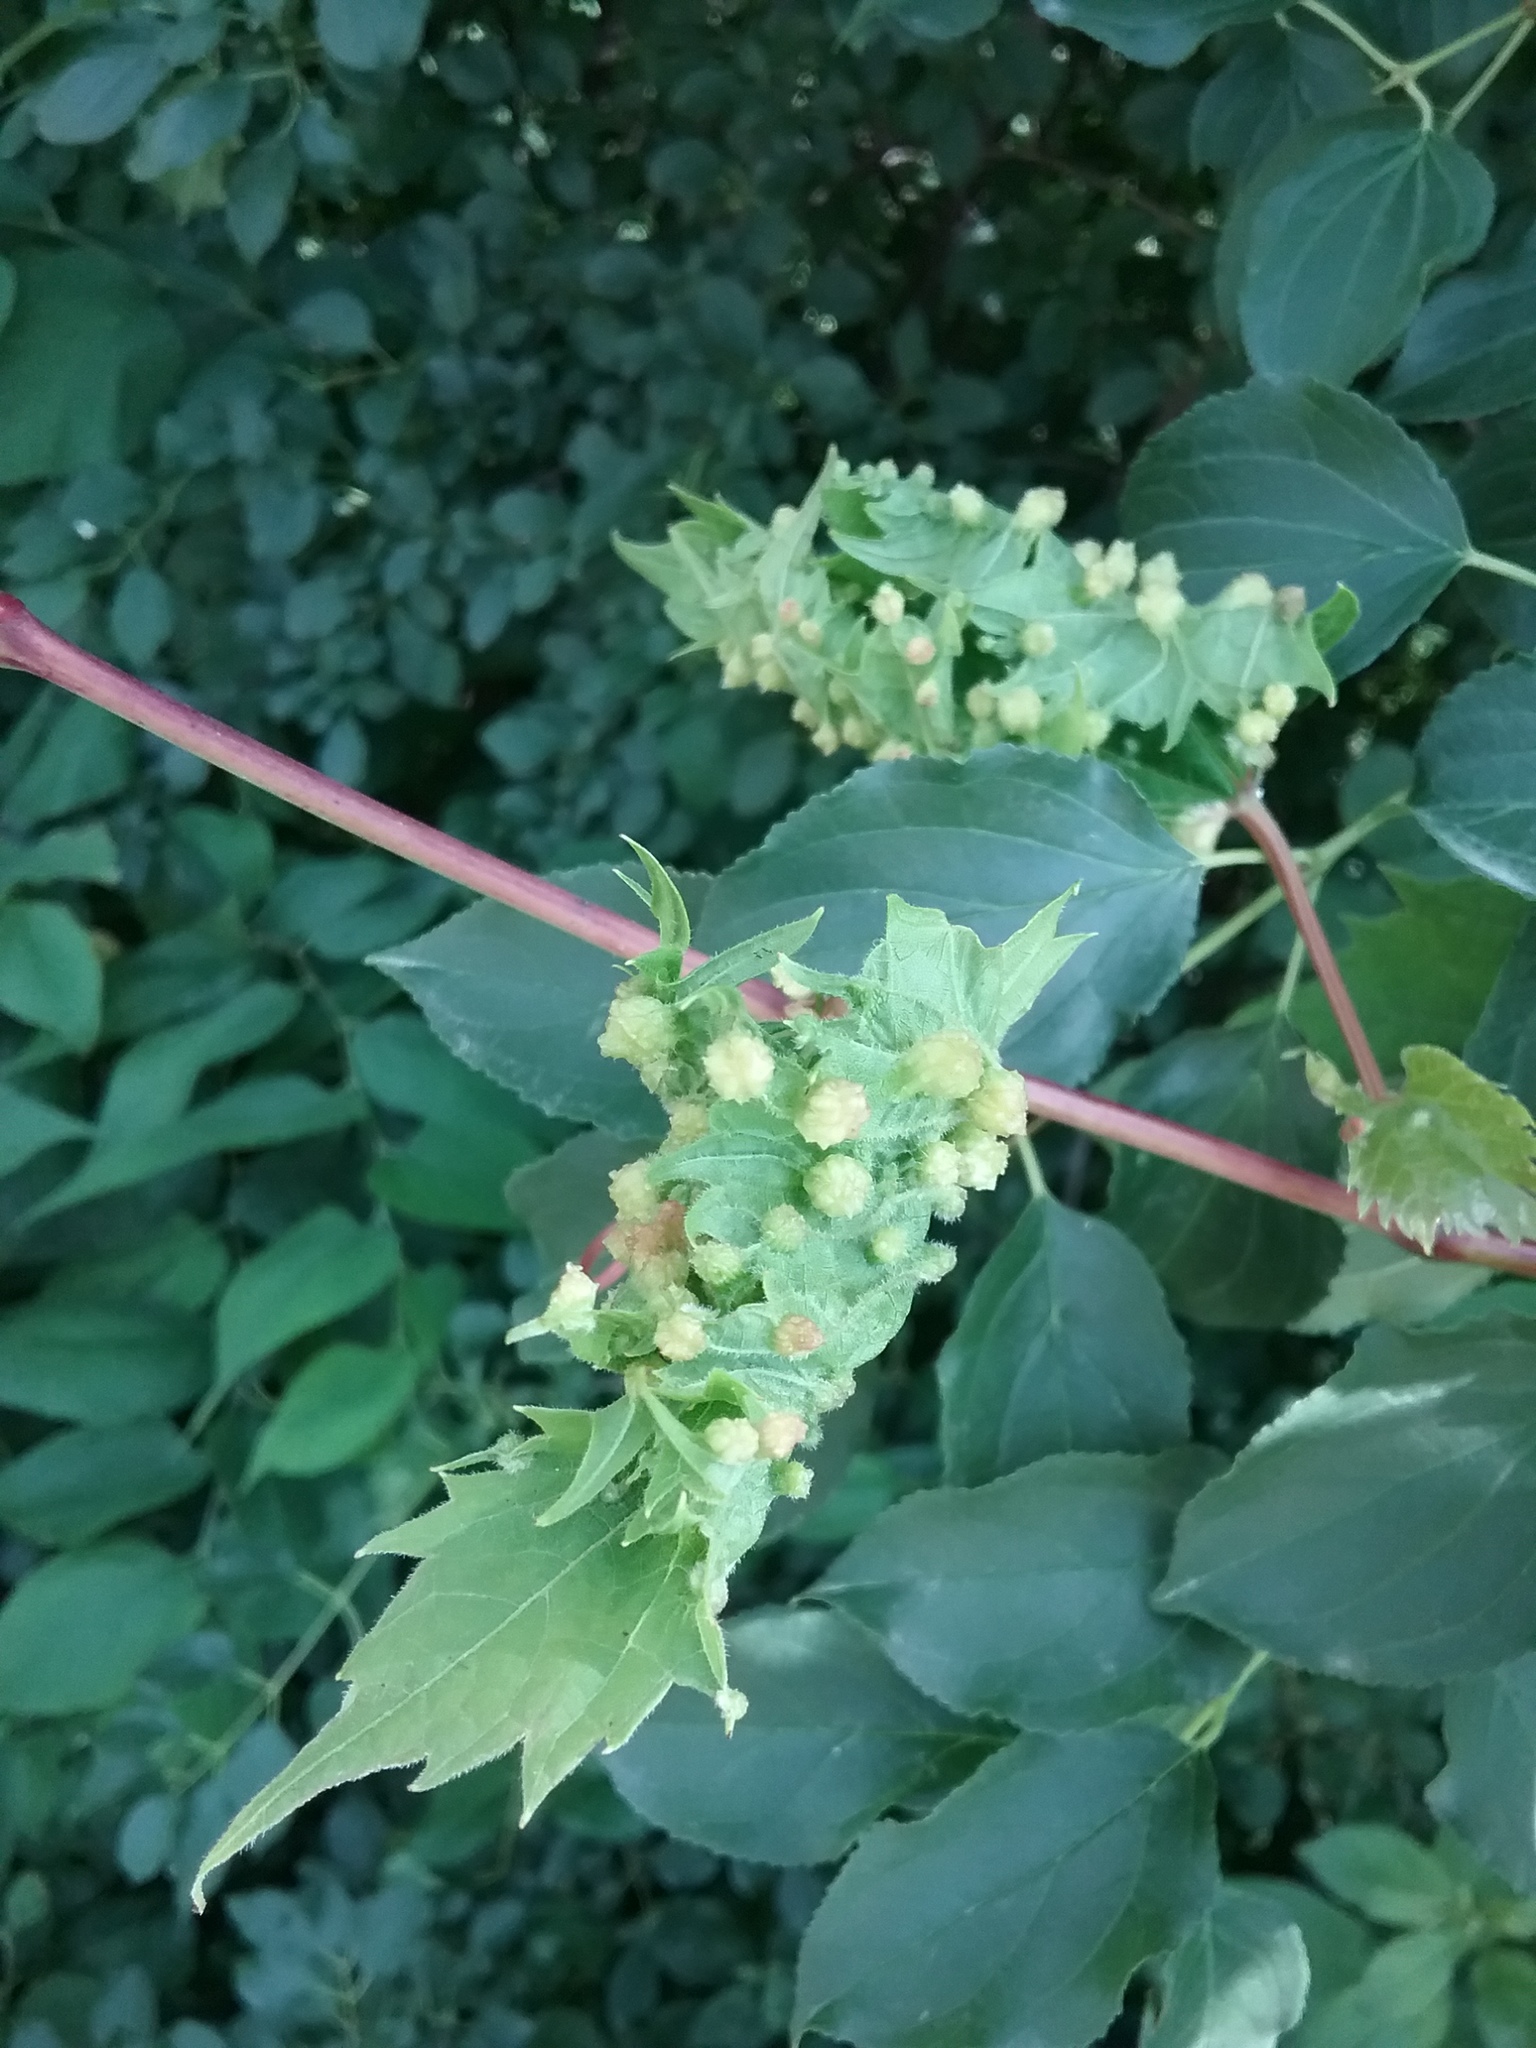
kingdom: Animalia
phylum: Arthropoda
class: Insecta
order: Hemiptera
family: Phylloxeridae
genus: Daktulosphaira
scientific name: Daktulosphaira vitifoliae
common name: Grape phylloxera
